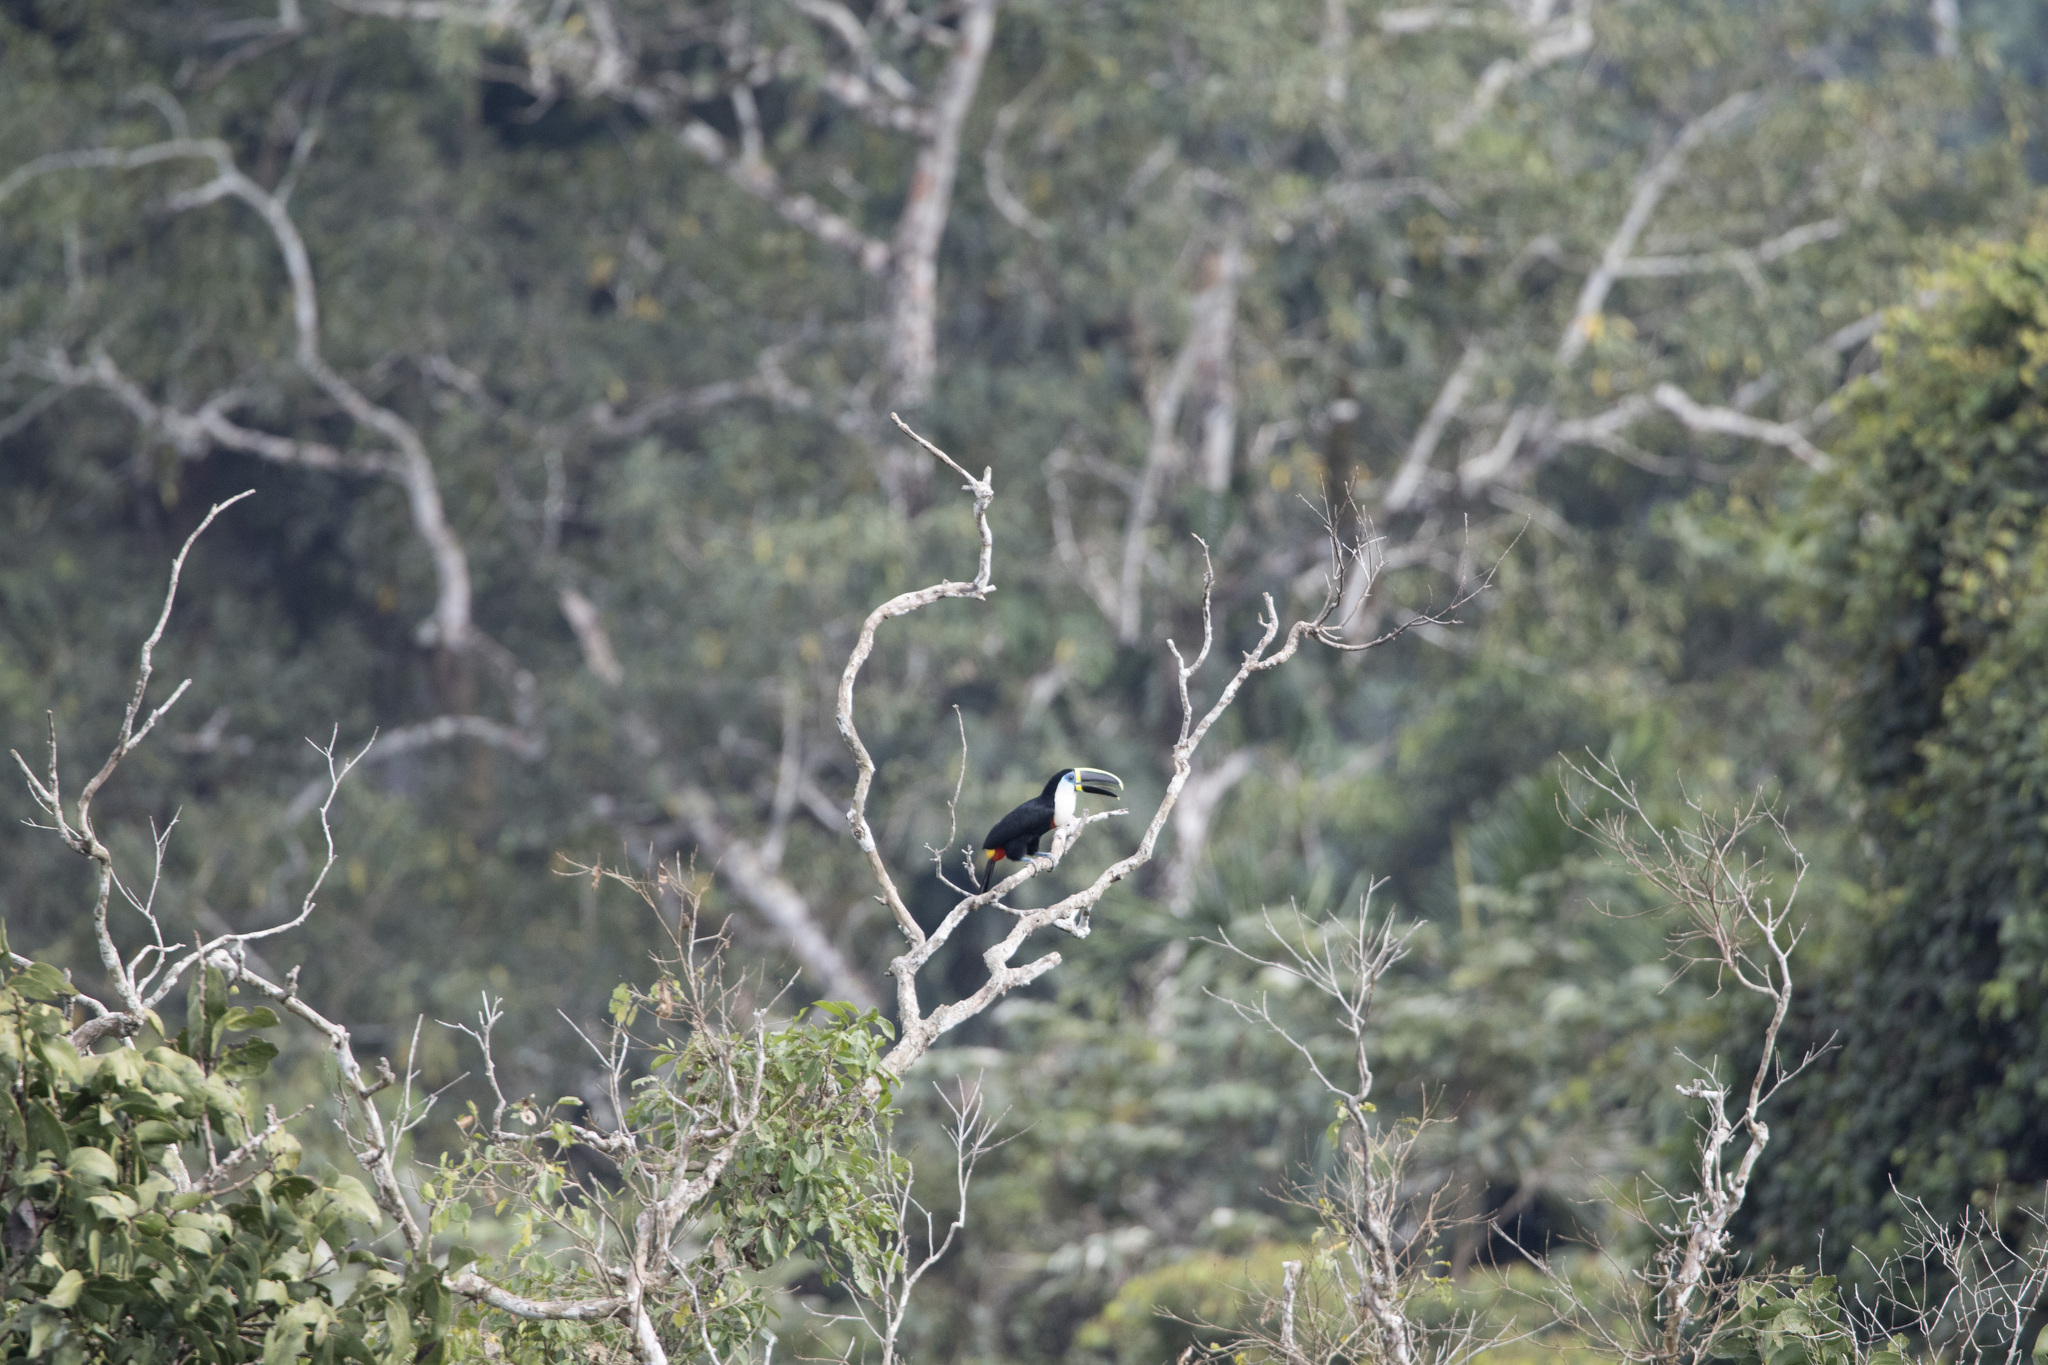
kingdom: Animalia
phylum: Chordata
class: Aves
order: Piciformes
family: Ramphastidae
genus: Ramphastos
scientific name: Ramphastos tucanus
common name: White-throated toucan
